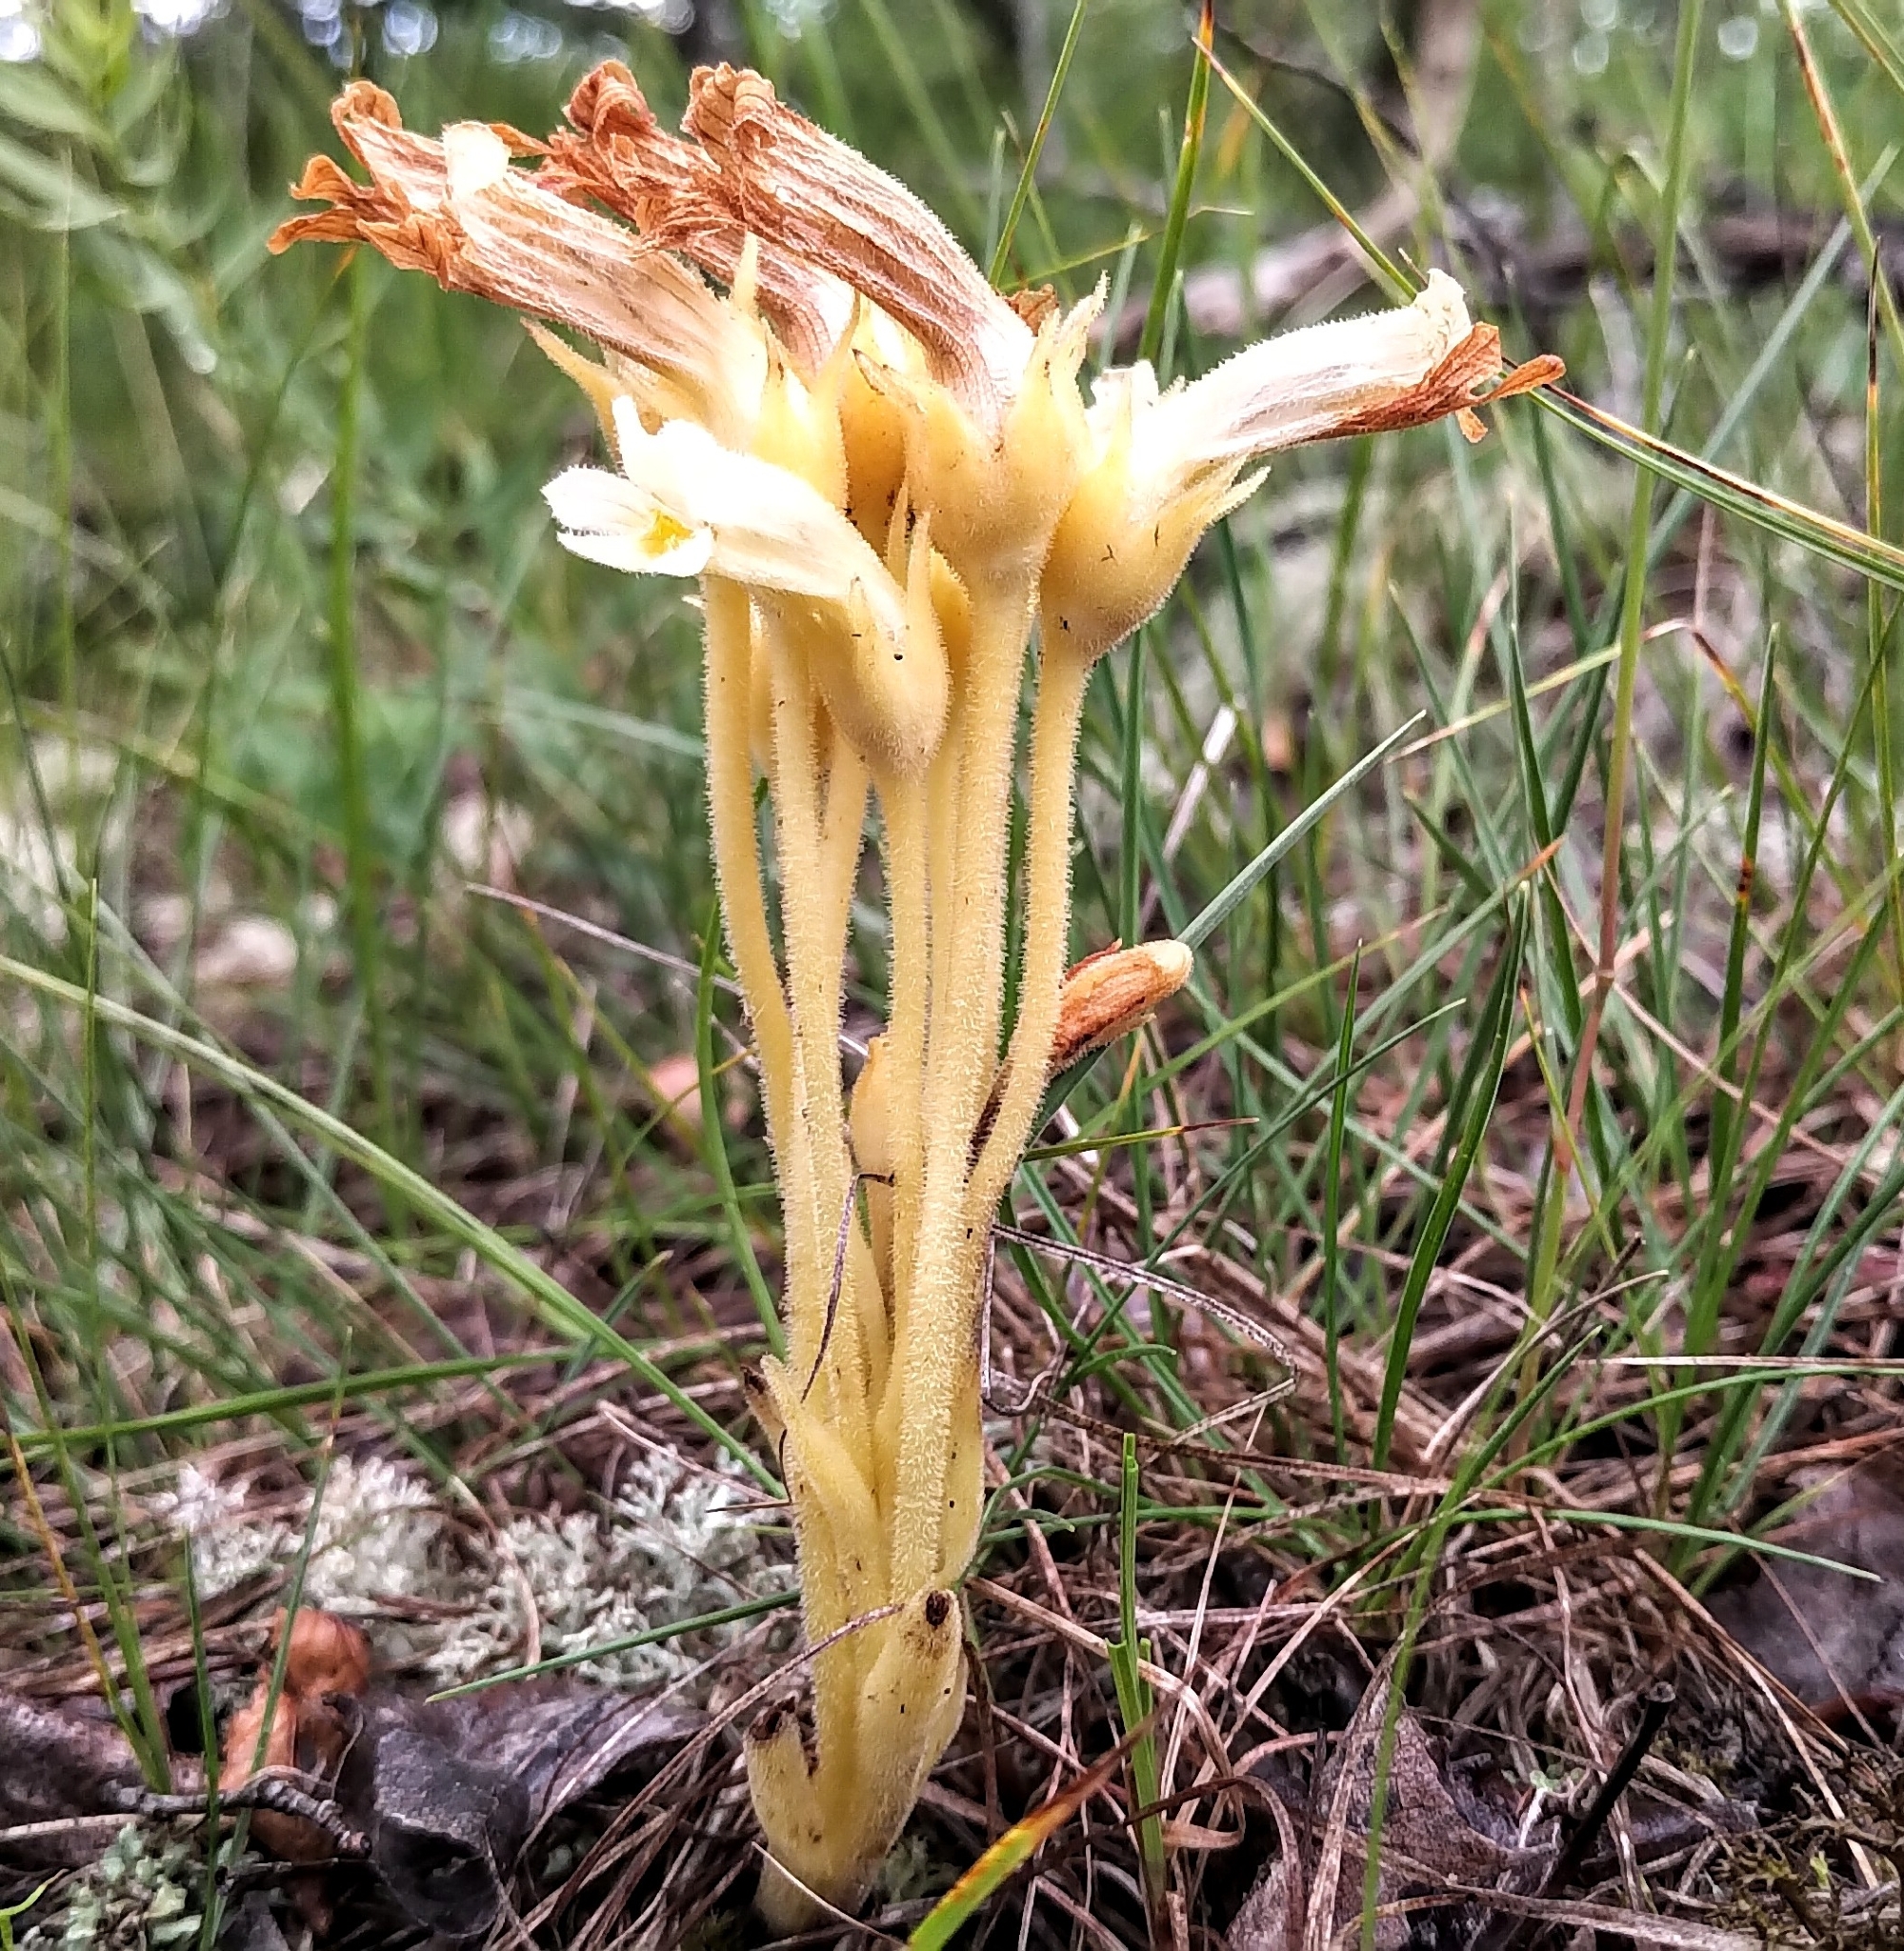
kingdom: Plantae
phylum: Tracheophyta
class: Magnoliopsida
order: Lamiales
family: Orobanchaceae
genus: Aphyllon
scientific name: Aphyllon fasciculatum
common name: Clustered broomrape
